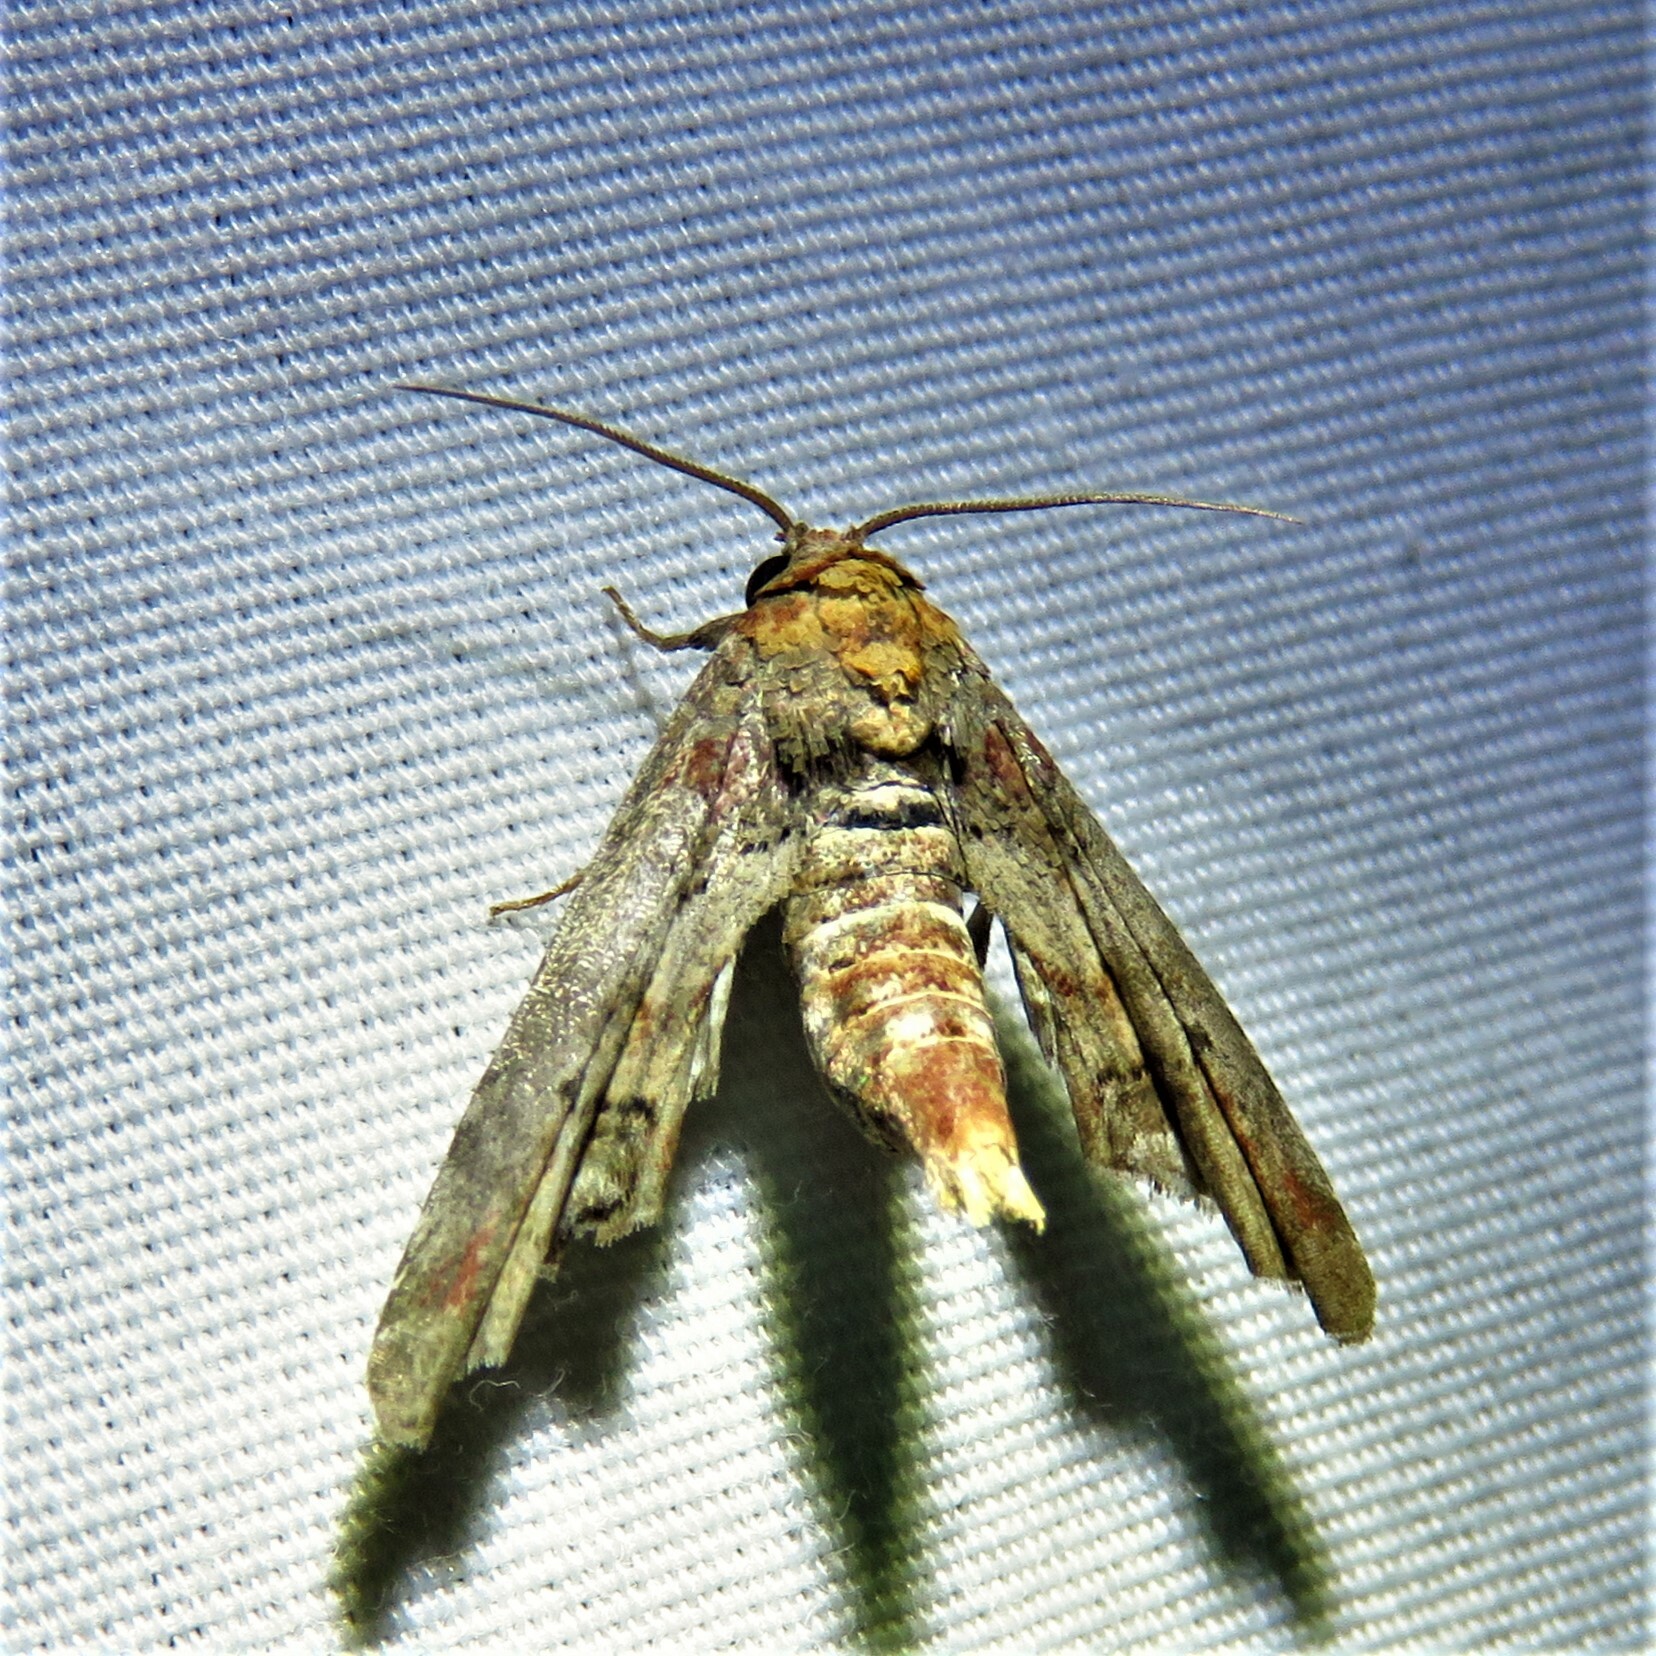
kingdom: Animalia
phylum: Arthropoda
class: Insecta
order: Lepidoptera
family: Euteliidae
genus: Marathyssa
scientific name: Marathyssa inficita
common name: Dark marathyssa moth
